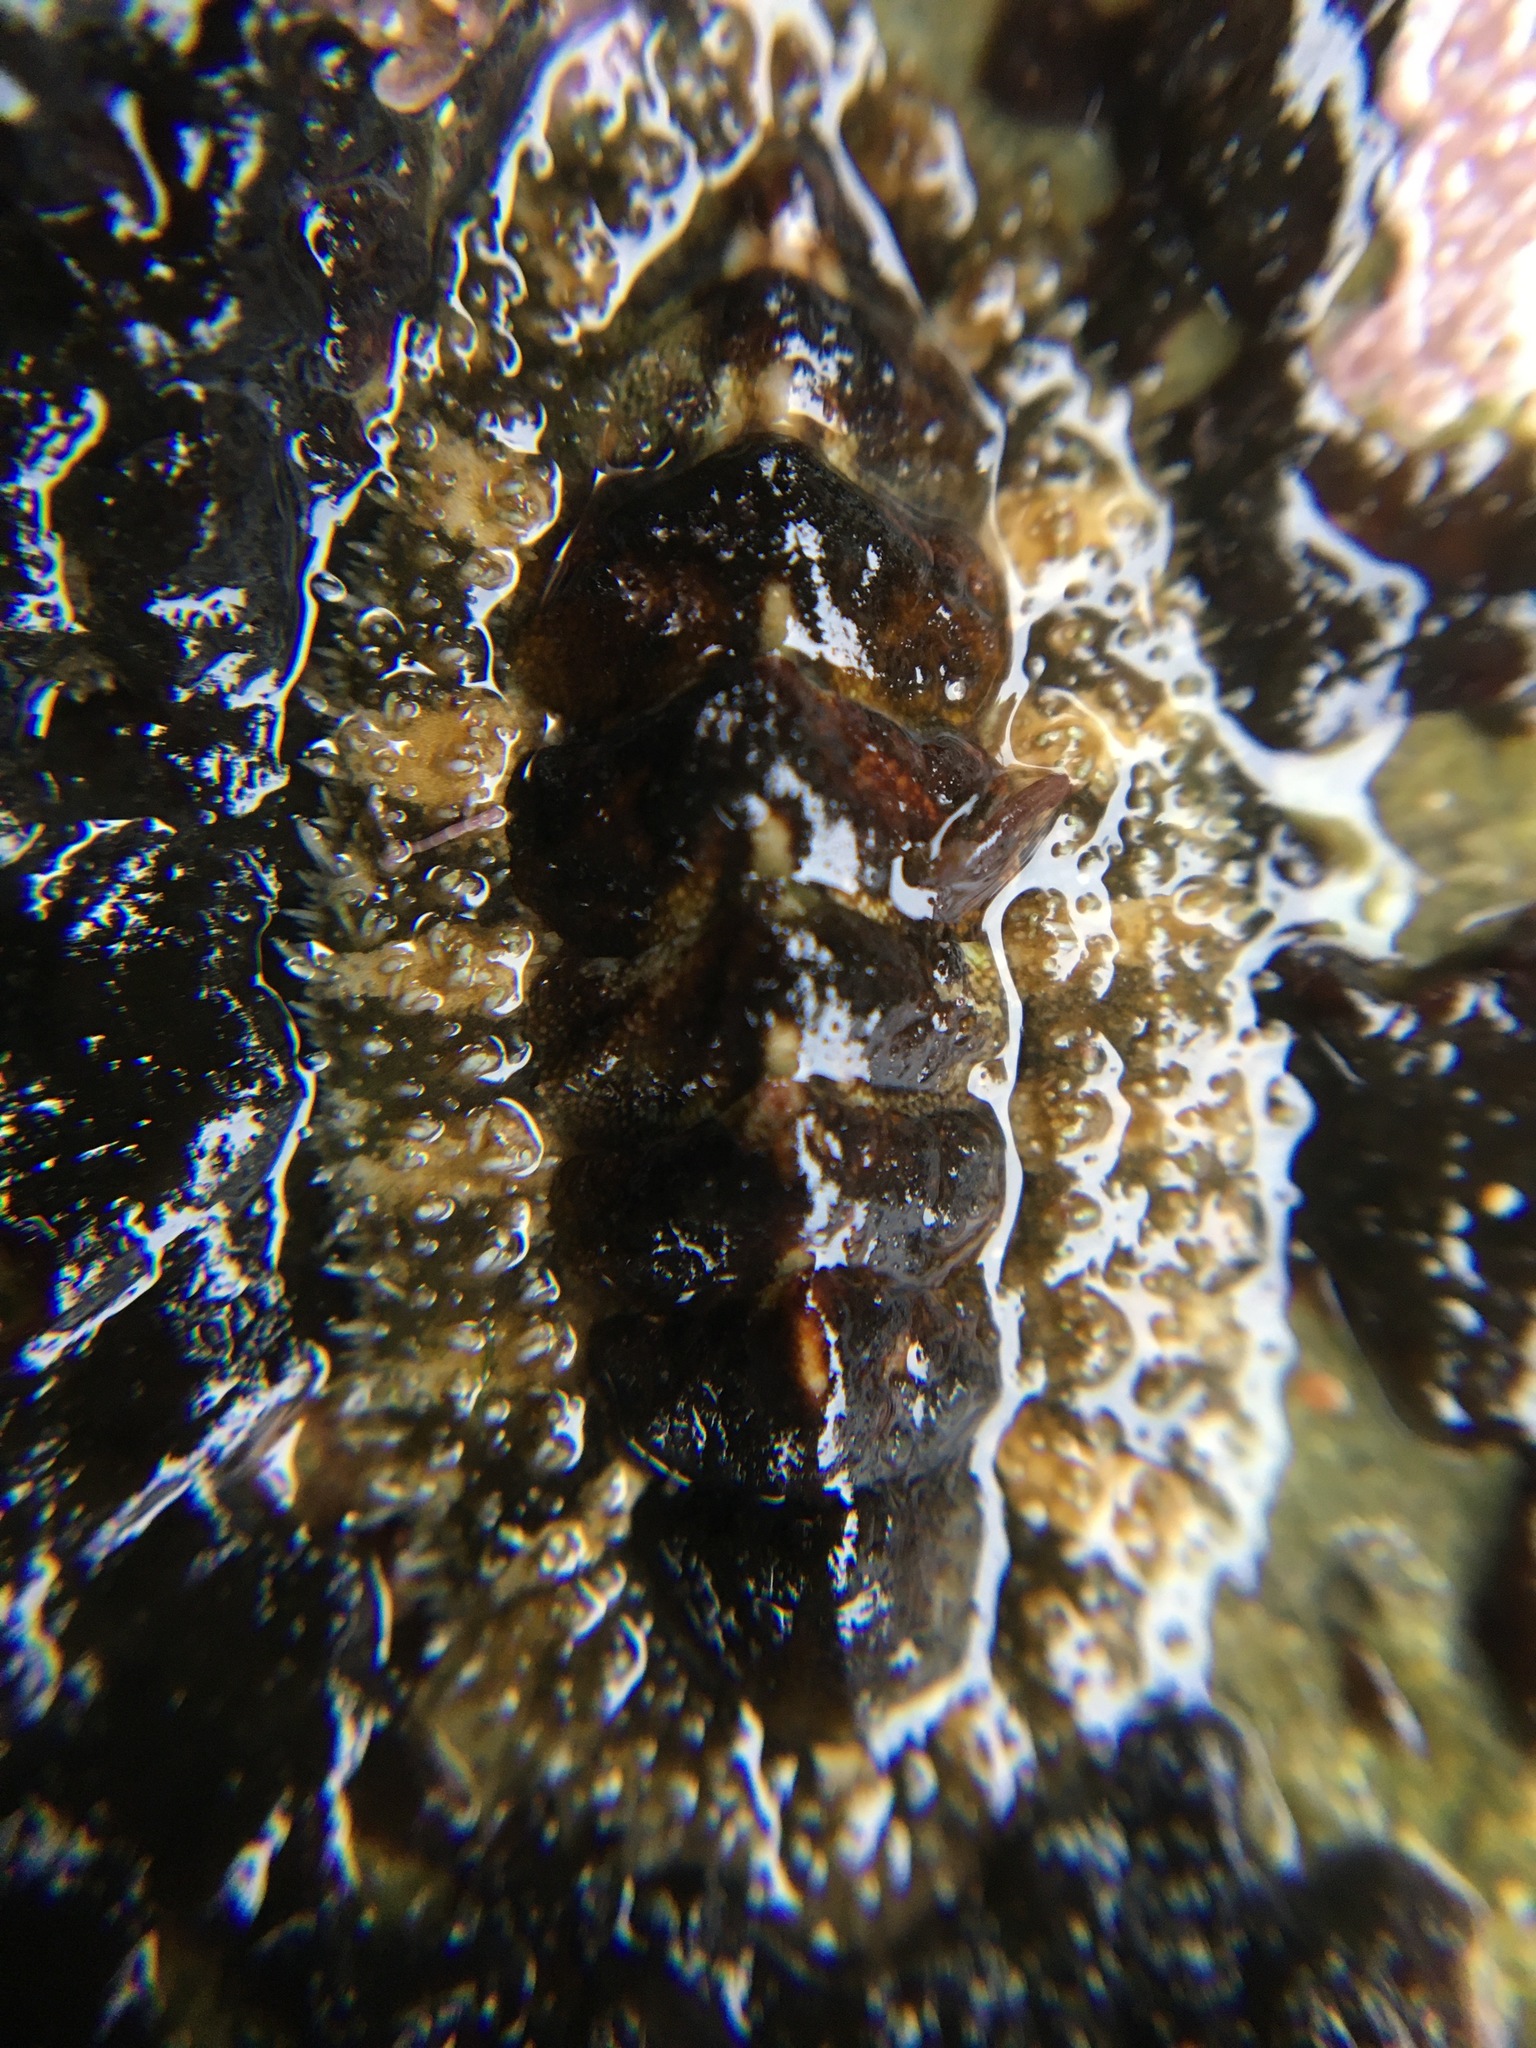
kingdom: Animalia
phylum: Mollusca
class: Polyplacophora
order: Chitonida
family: Tonicellidae
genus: Nuttallina
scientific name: Nuttallina californica
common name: California nuttall chiton
